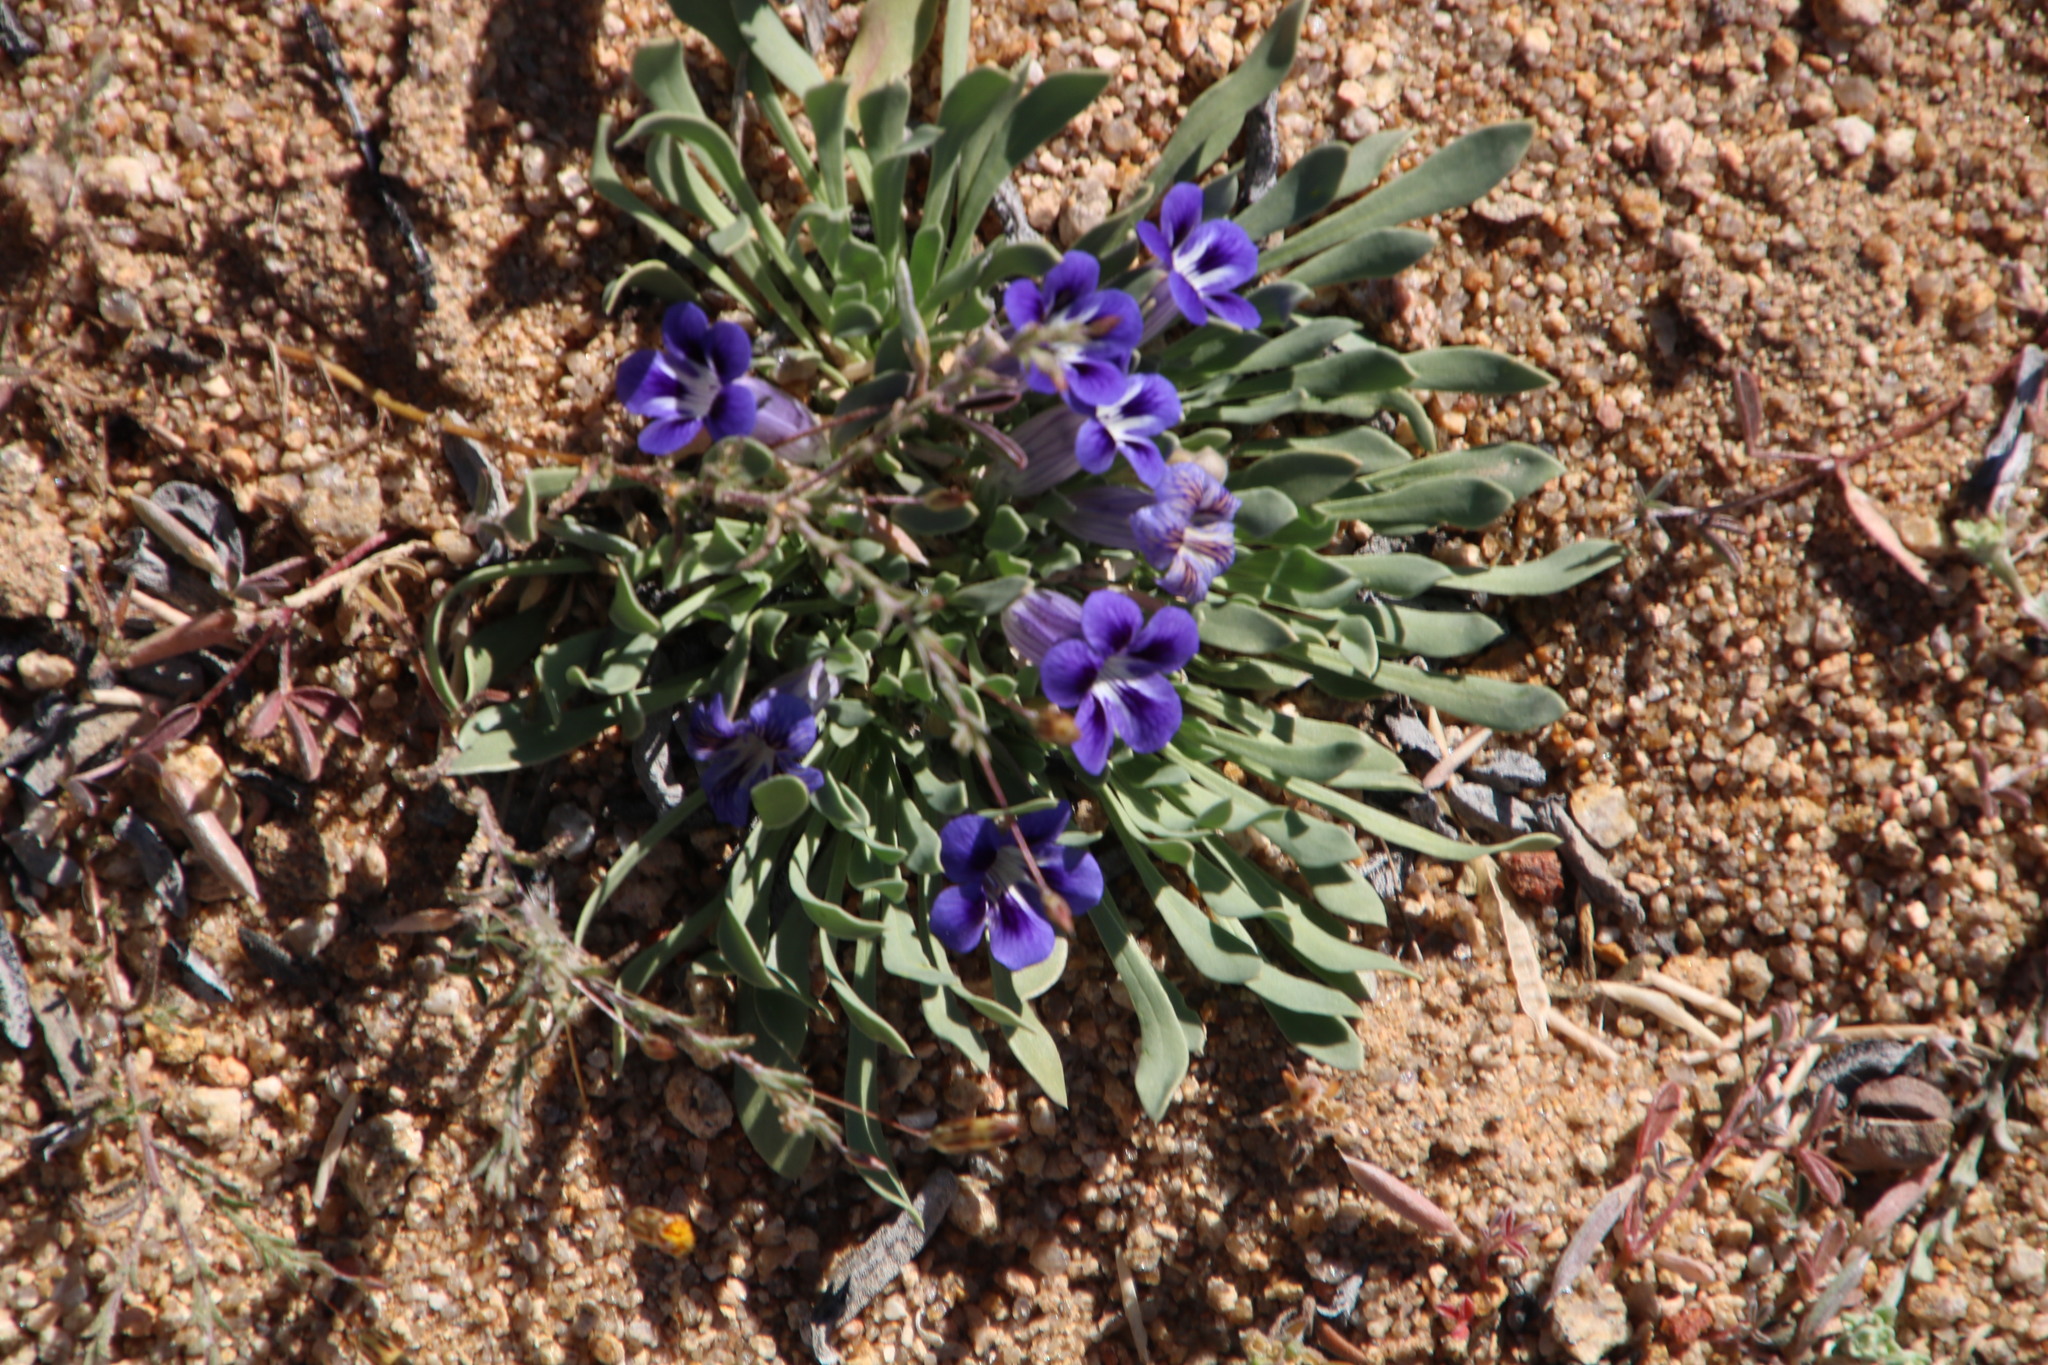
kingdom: Plantae
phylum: Tracheophyta
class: Magnoliopsida
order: Lamiales
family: Scrophulariaceae
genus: Aptosimum
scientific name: Aptosimum indivisum
